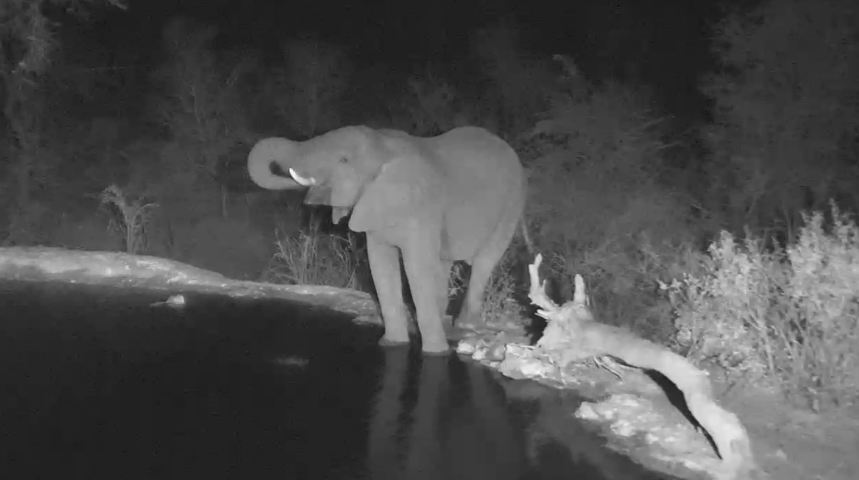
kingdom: Animalia
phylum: Chordata
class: Mammalia
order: Proboscidea
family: Elephantidae
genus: Loxodonta
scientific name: Loxodonta africana
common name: African elephant
